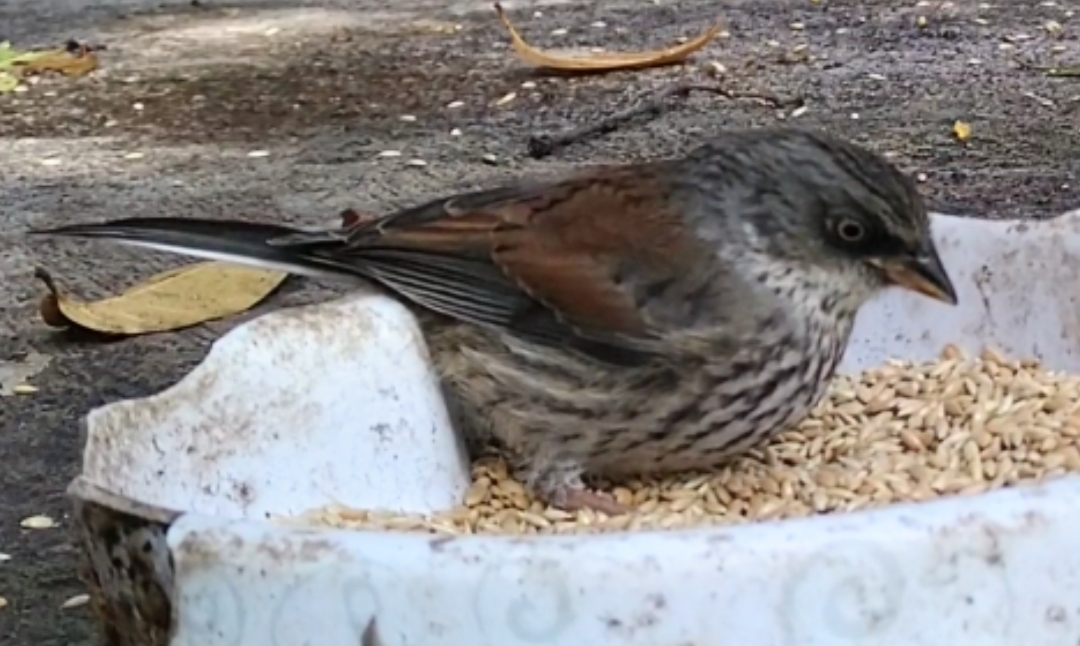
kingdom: Animalia
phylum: Chordata
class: Aves
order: Passeriformes
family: Passerellidae
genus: Junco
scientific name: Junco phaeonotus
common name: Yellow-eyed junco
